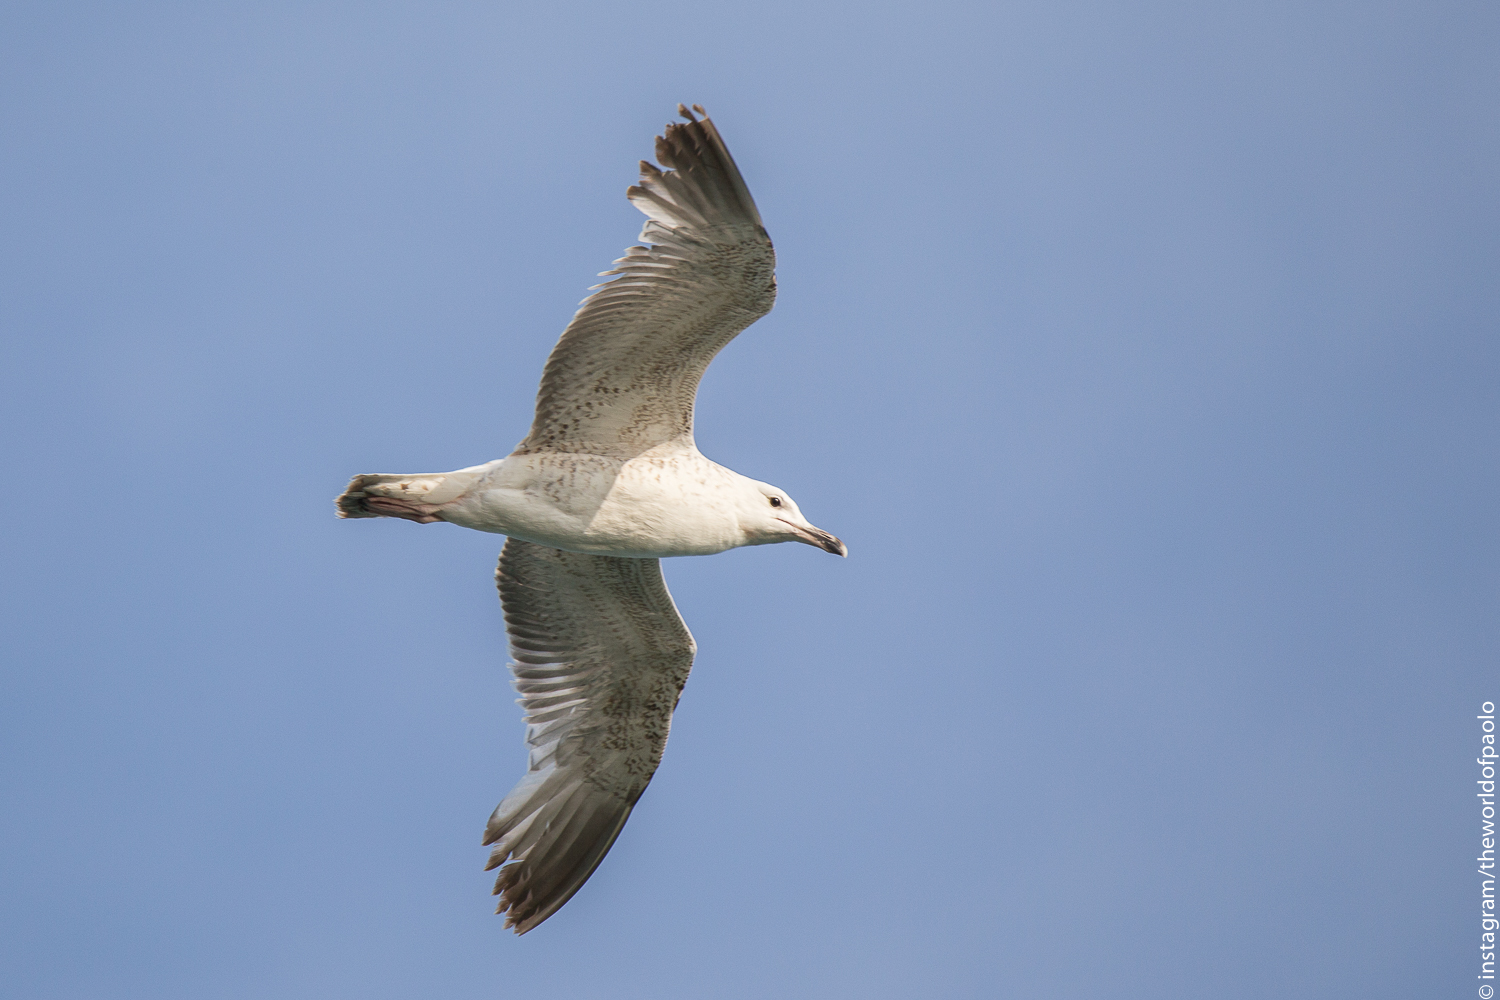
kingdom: Animalia
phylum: Chordata
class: Aves
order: Charadriiformes
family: Laridae
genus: Larus
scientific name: Larus cachinnans
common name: Caspian gull
